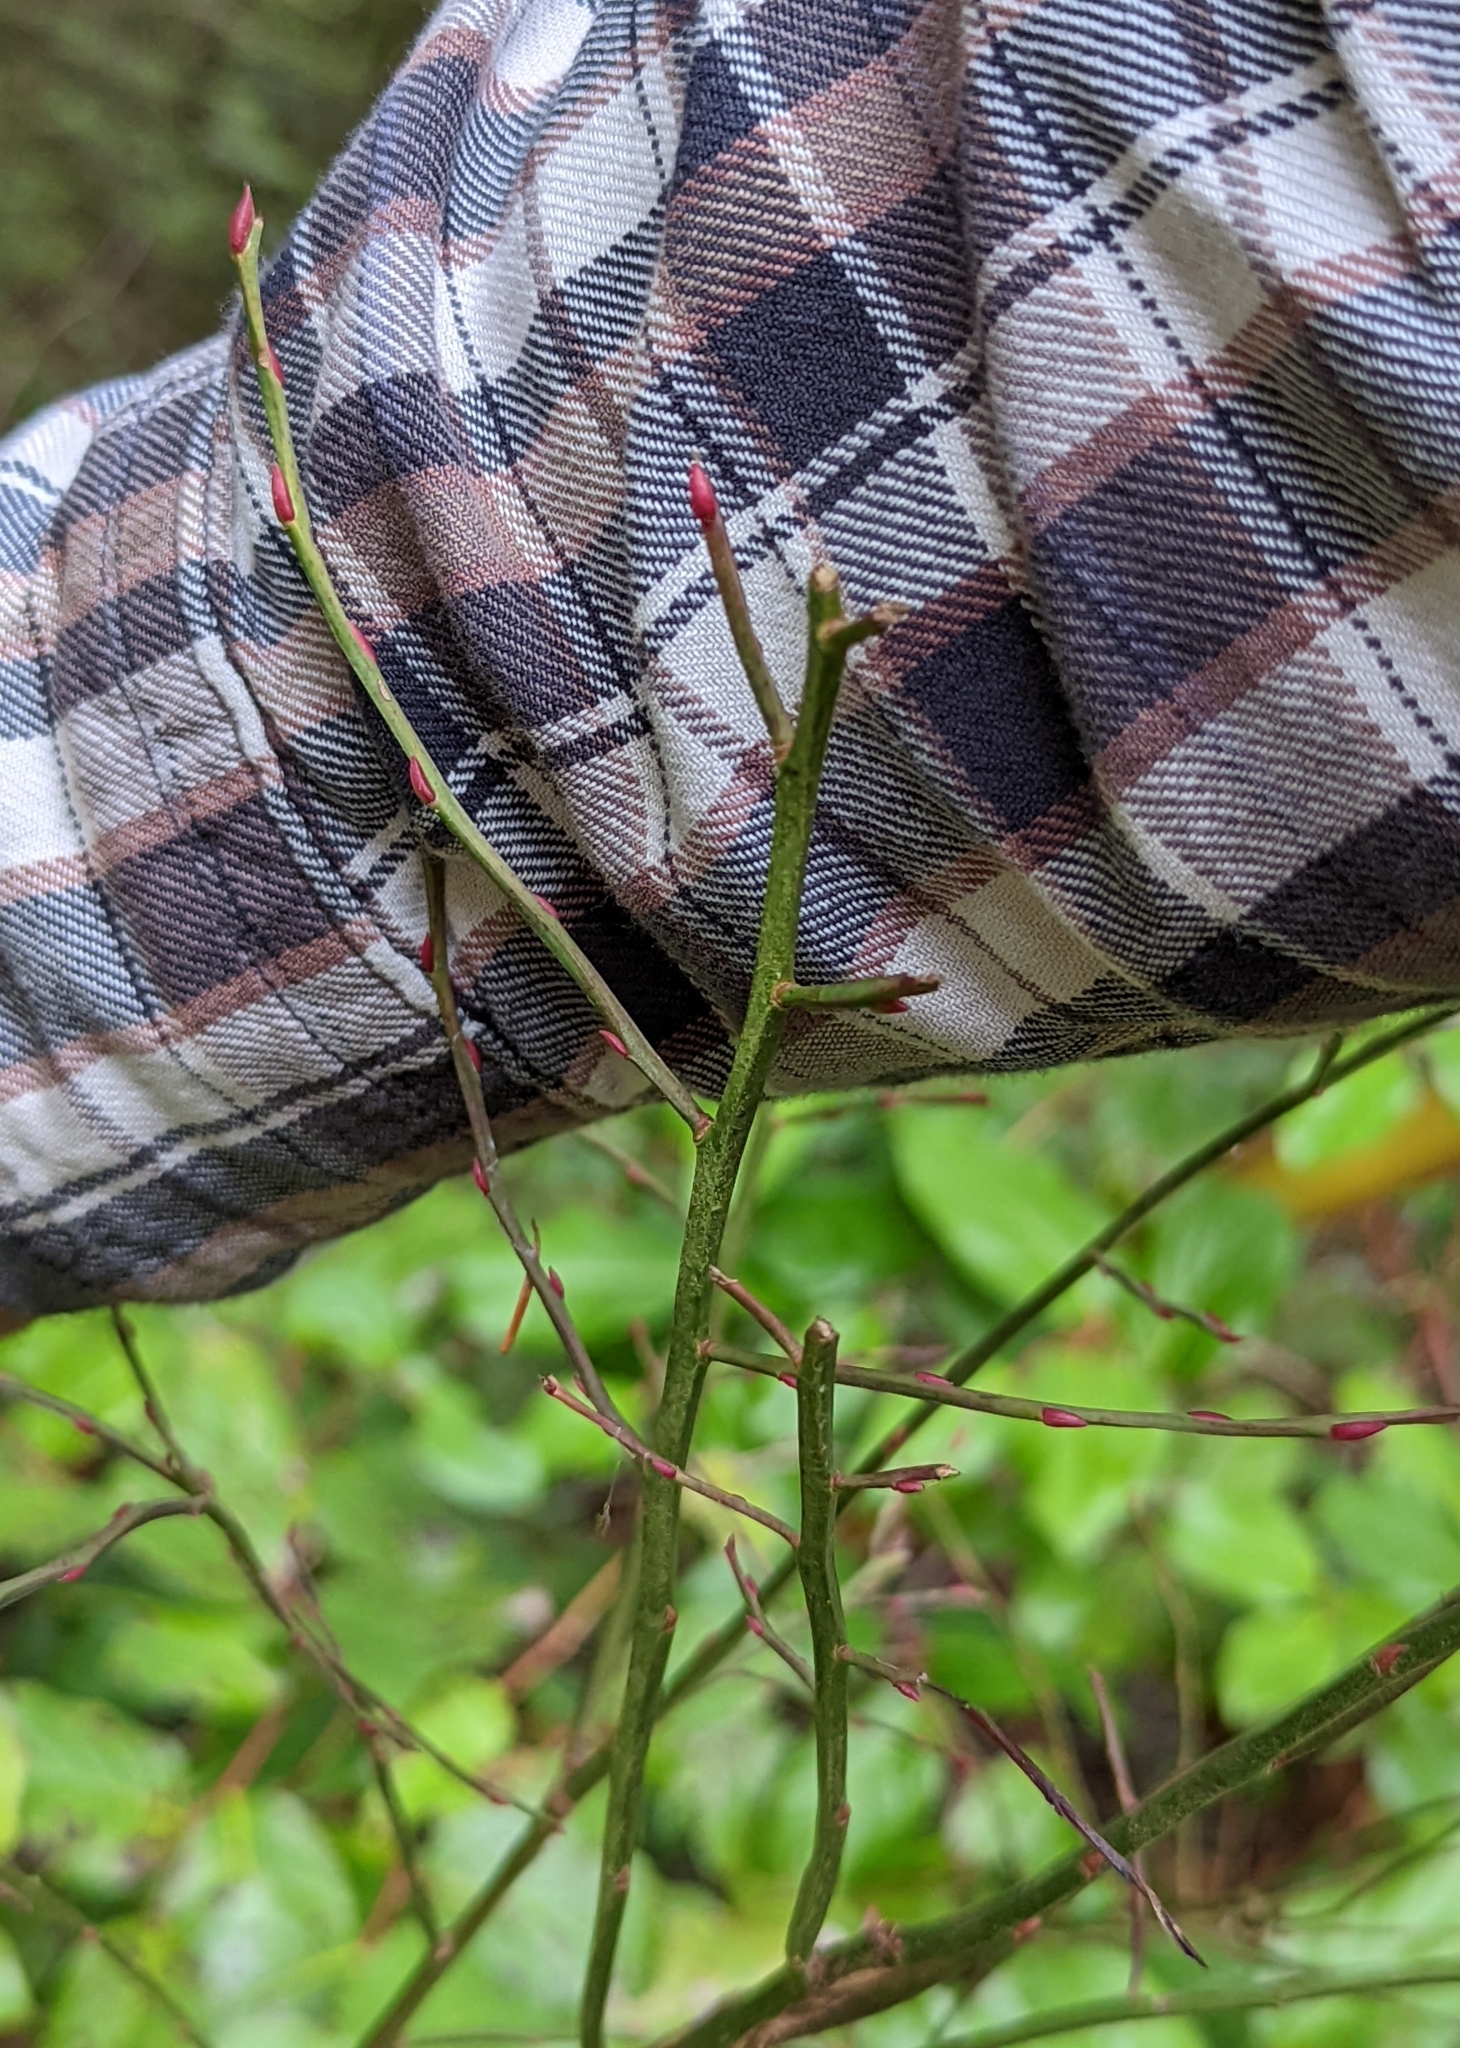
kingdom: Plantae
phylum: Tracheophyta
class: Magnoliopsida
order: Ericales
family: Ericaceae
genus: Vaccinium
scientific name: Vaccinium parvifolium
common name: Red-huckleberry
